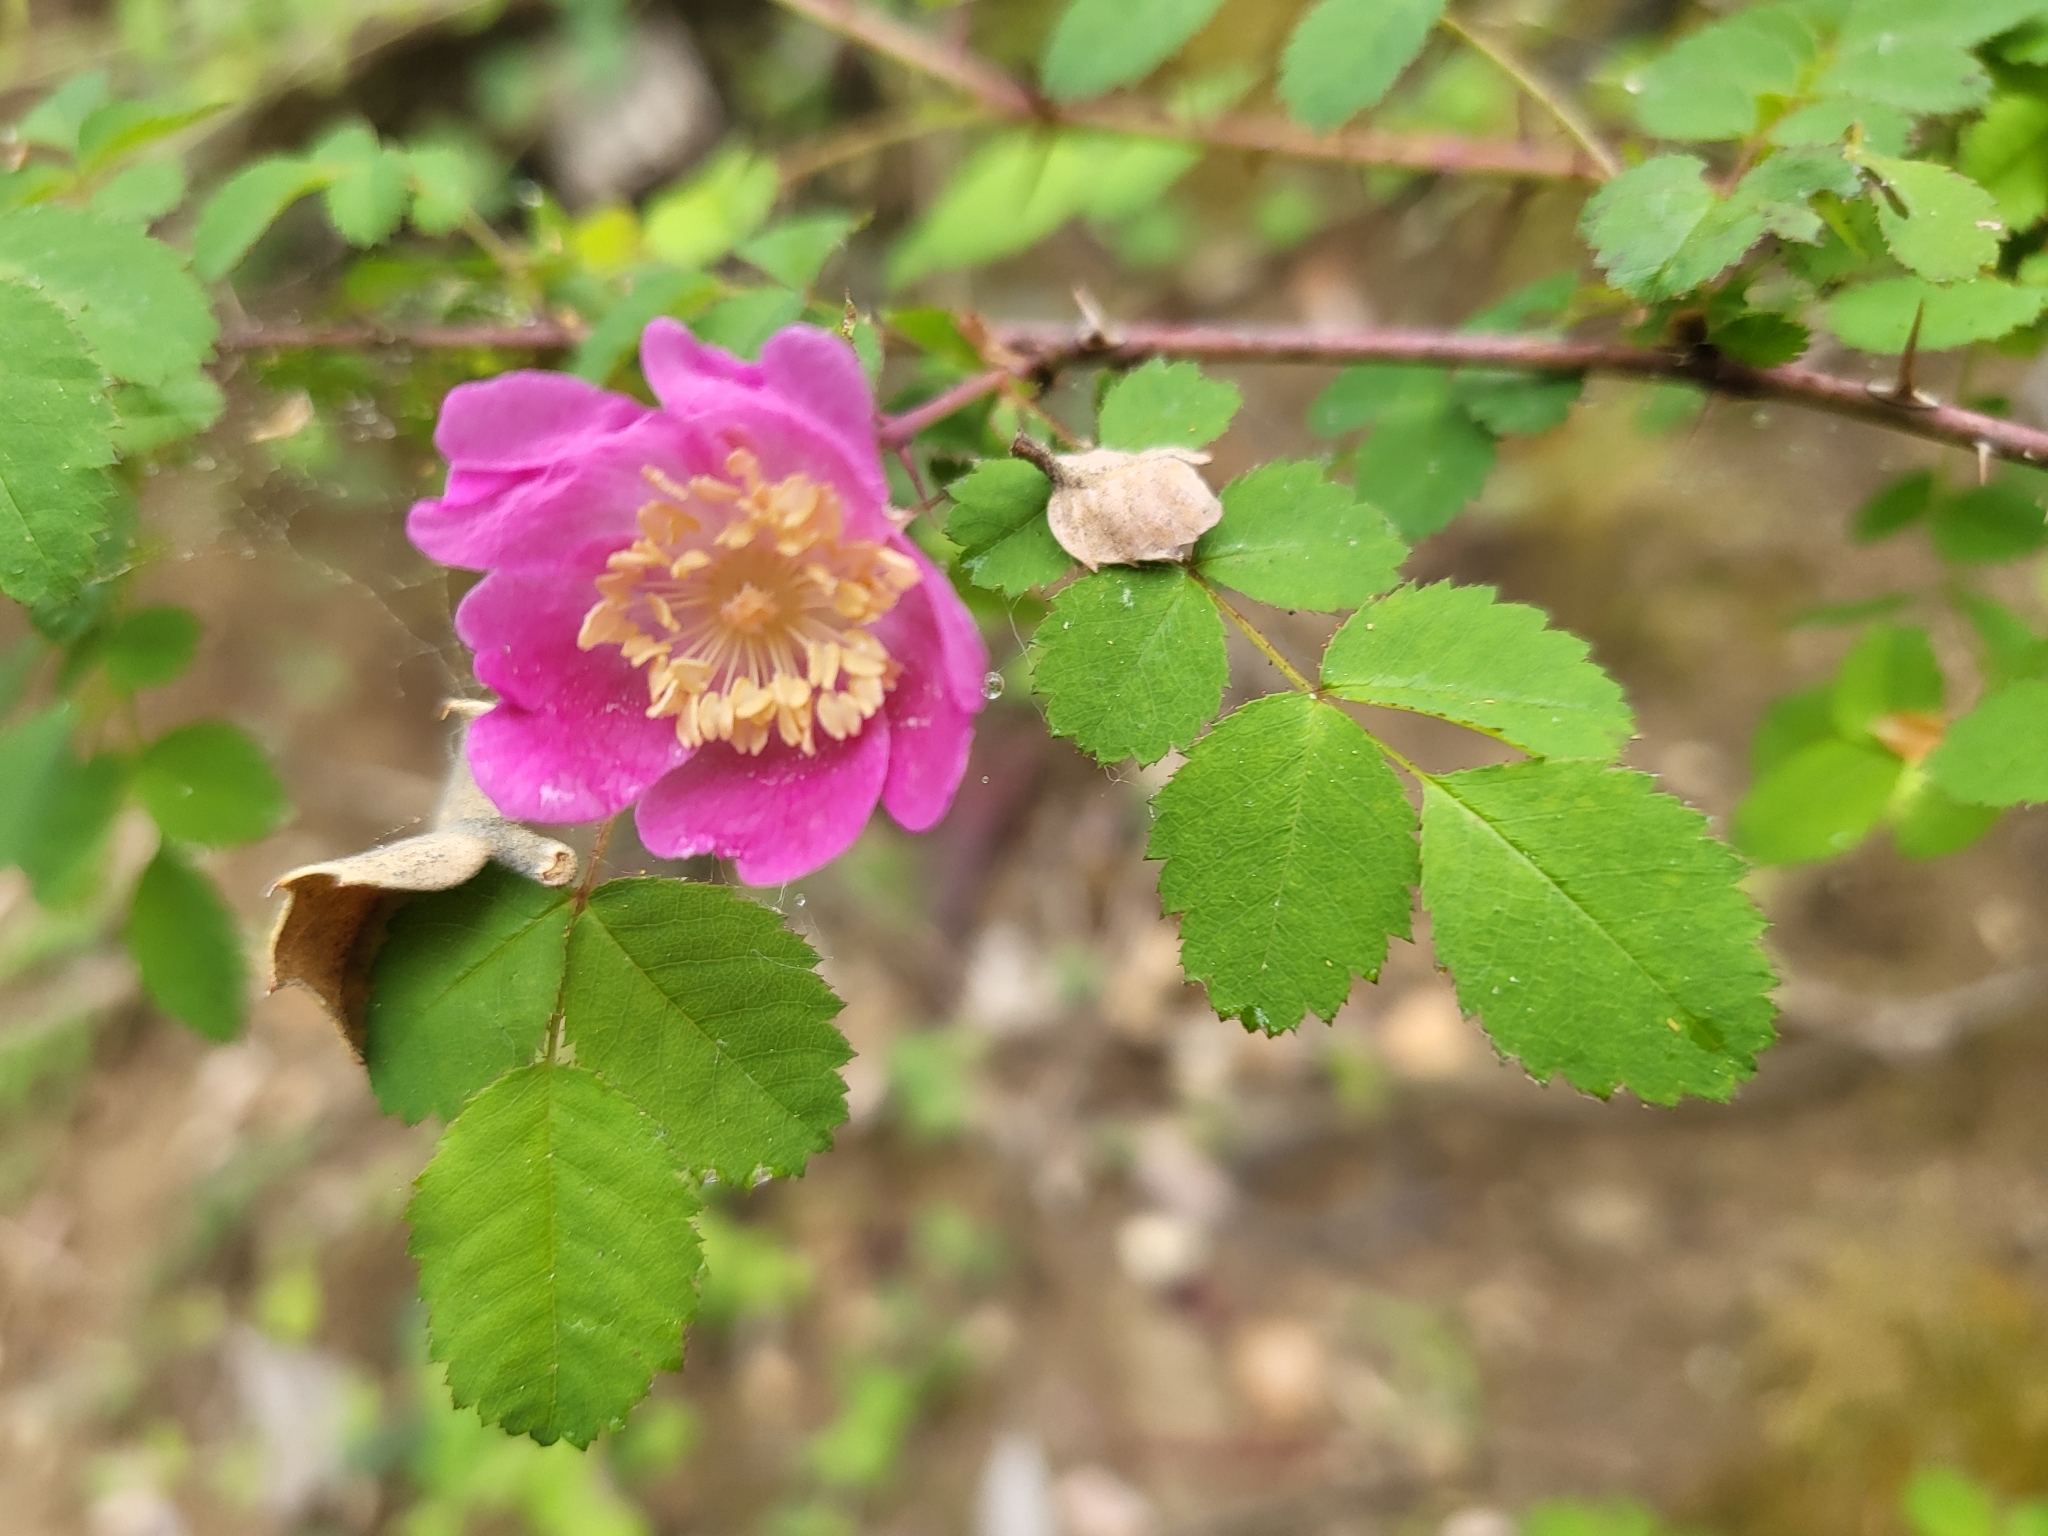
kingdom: Plantae
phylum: Tracheophyta
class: Magnoliopsida
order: Rosales
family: Rosaceae
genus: Rosa
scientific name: Rosa californica
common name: California rose
